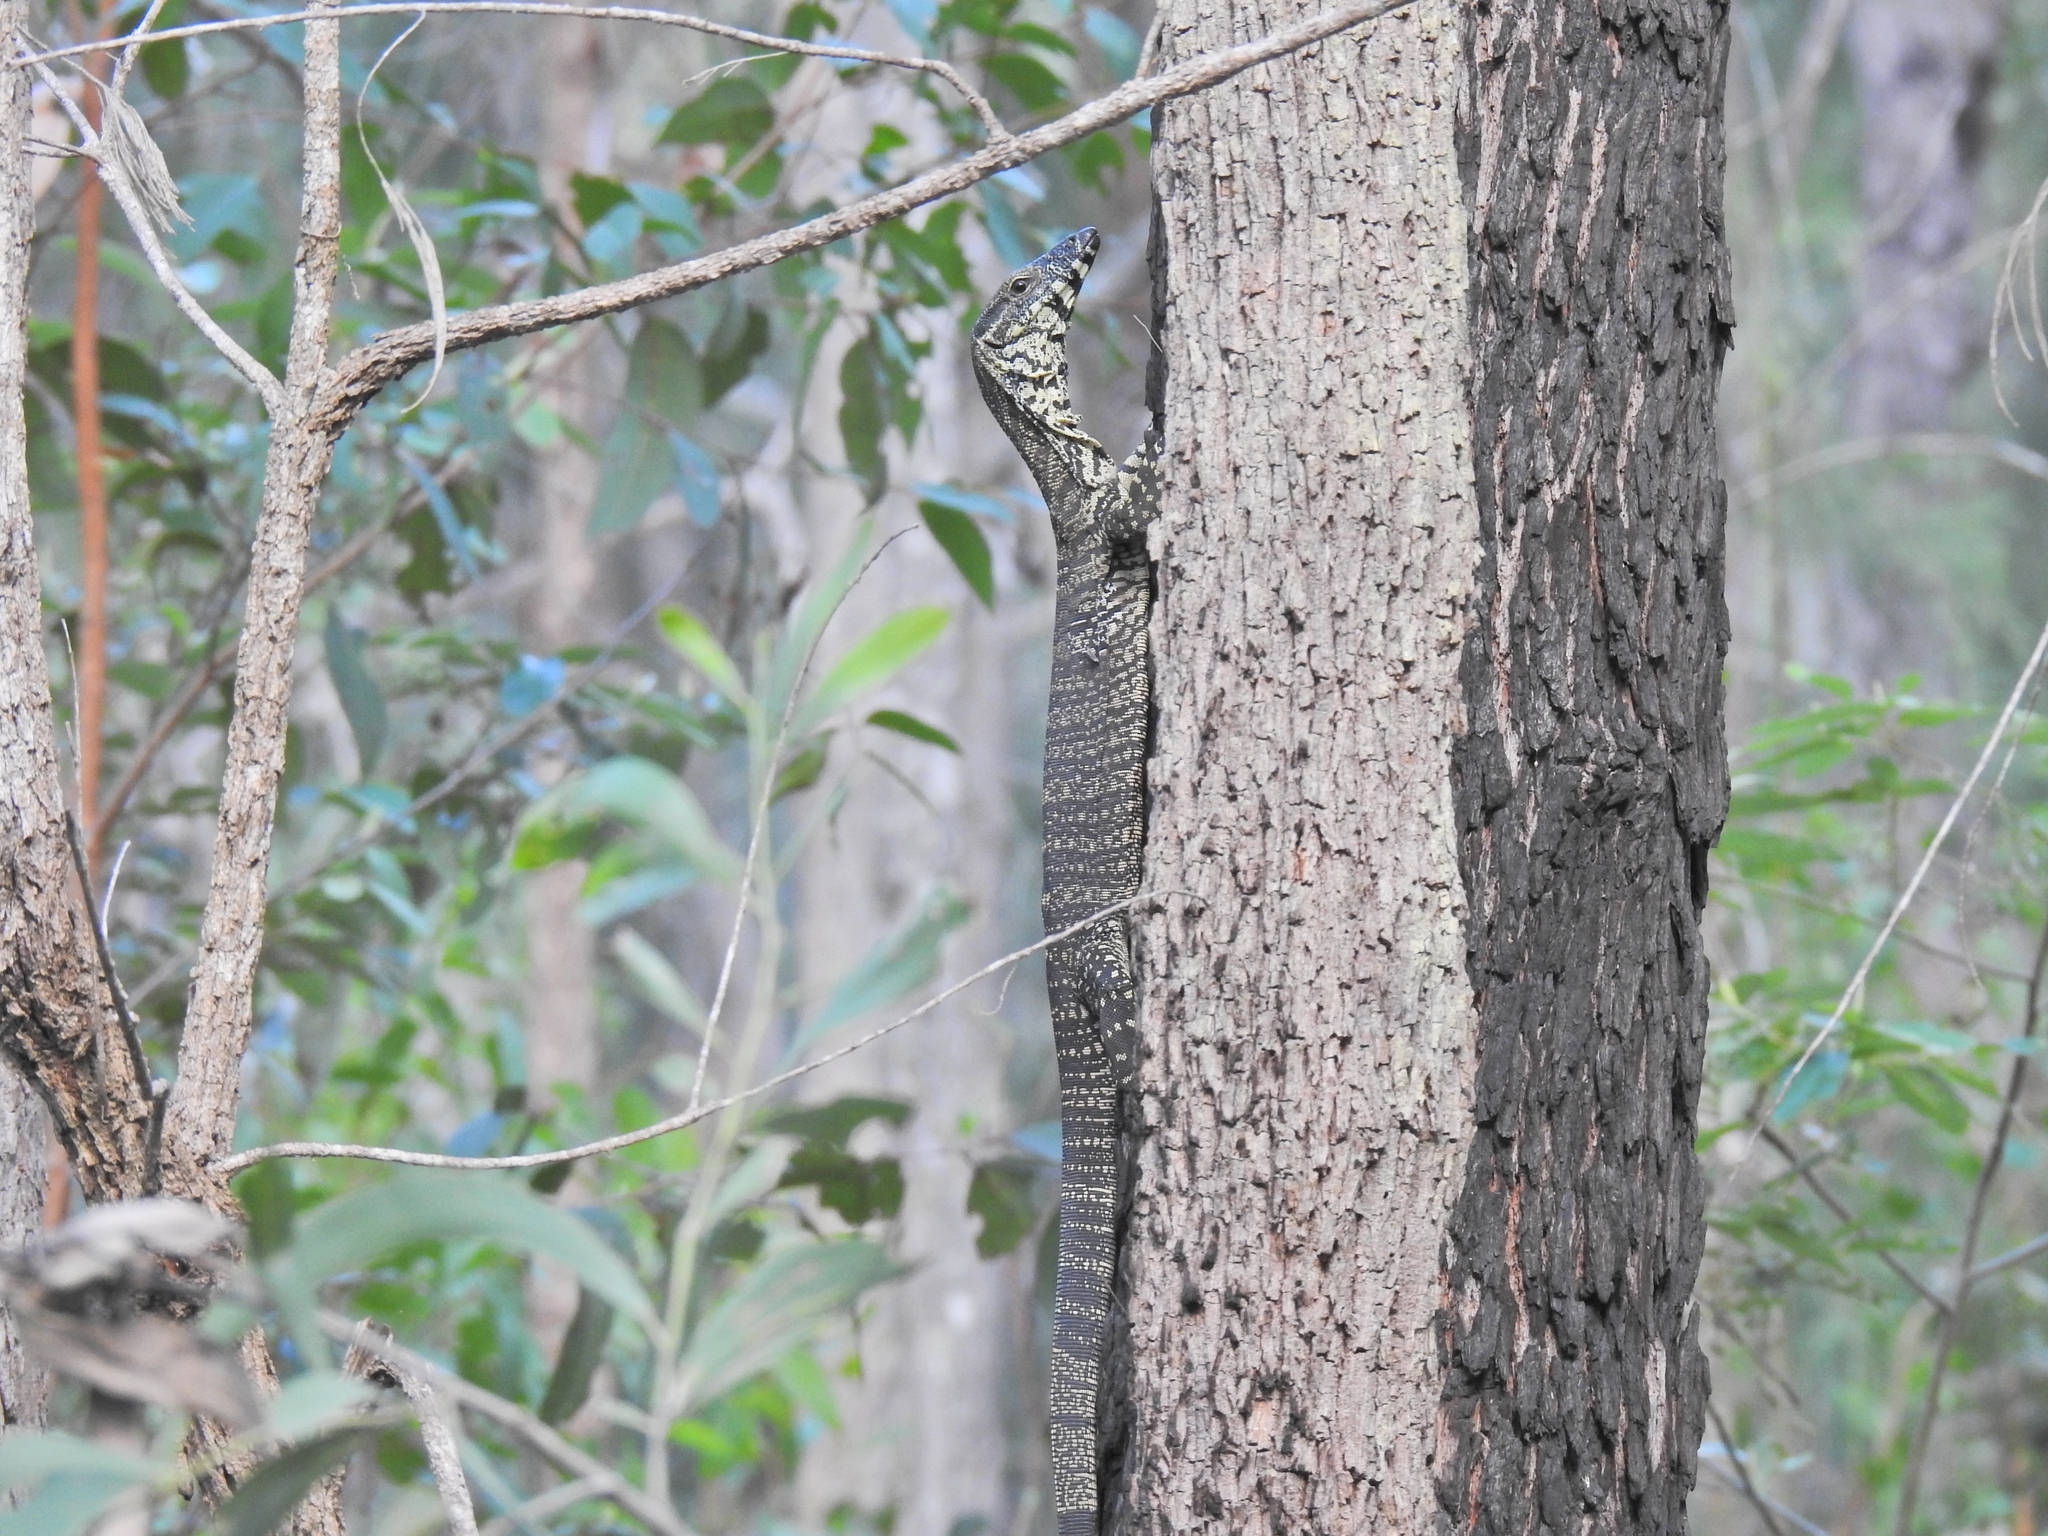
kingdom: Animalia
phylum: Chordata
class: Squamata
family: Varanidae
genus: Varanus
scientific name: Varanus varius
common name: Lace monitor
